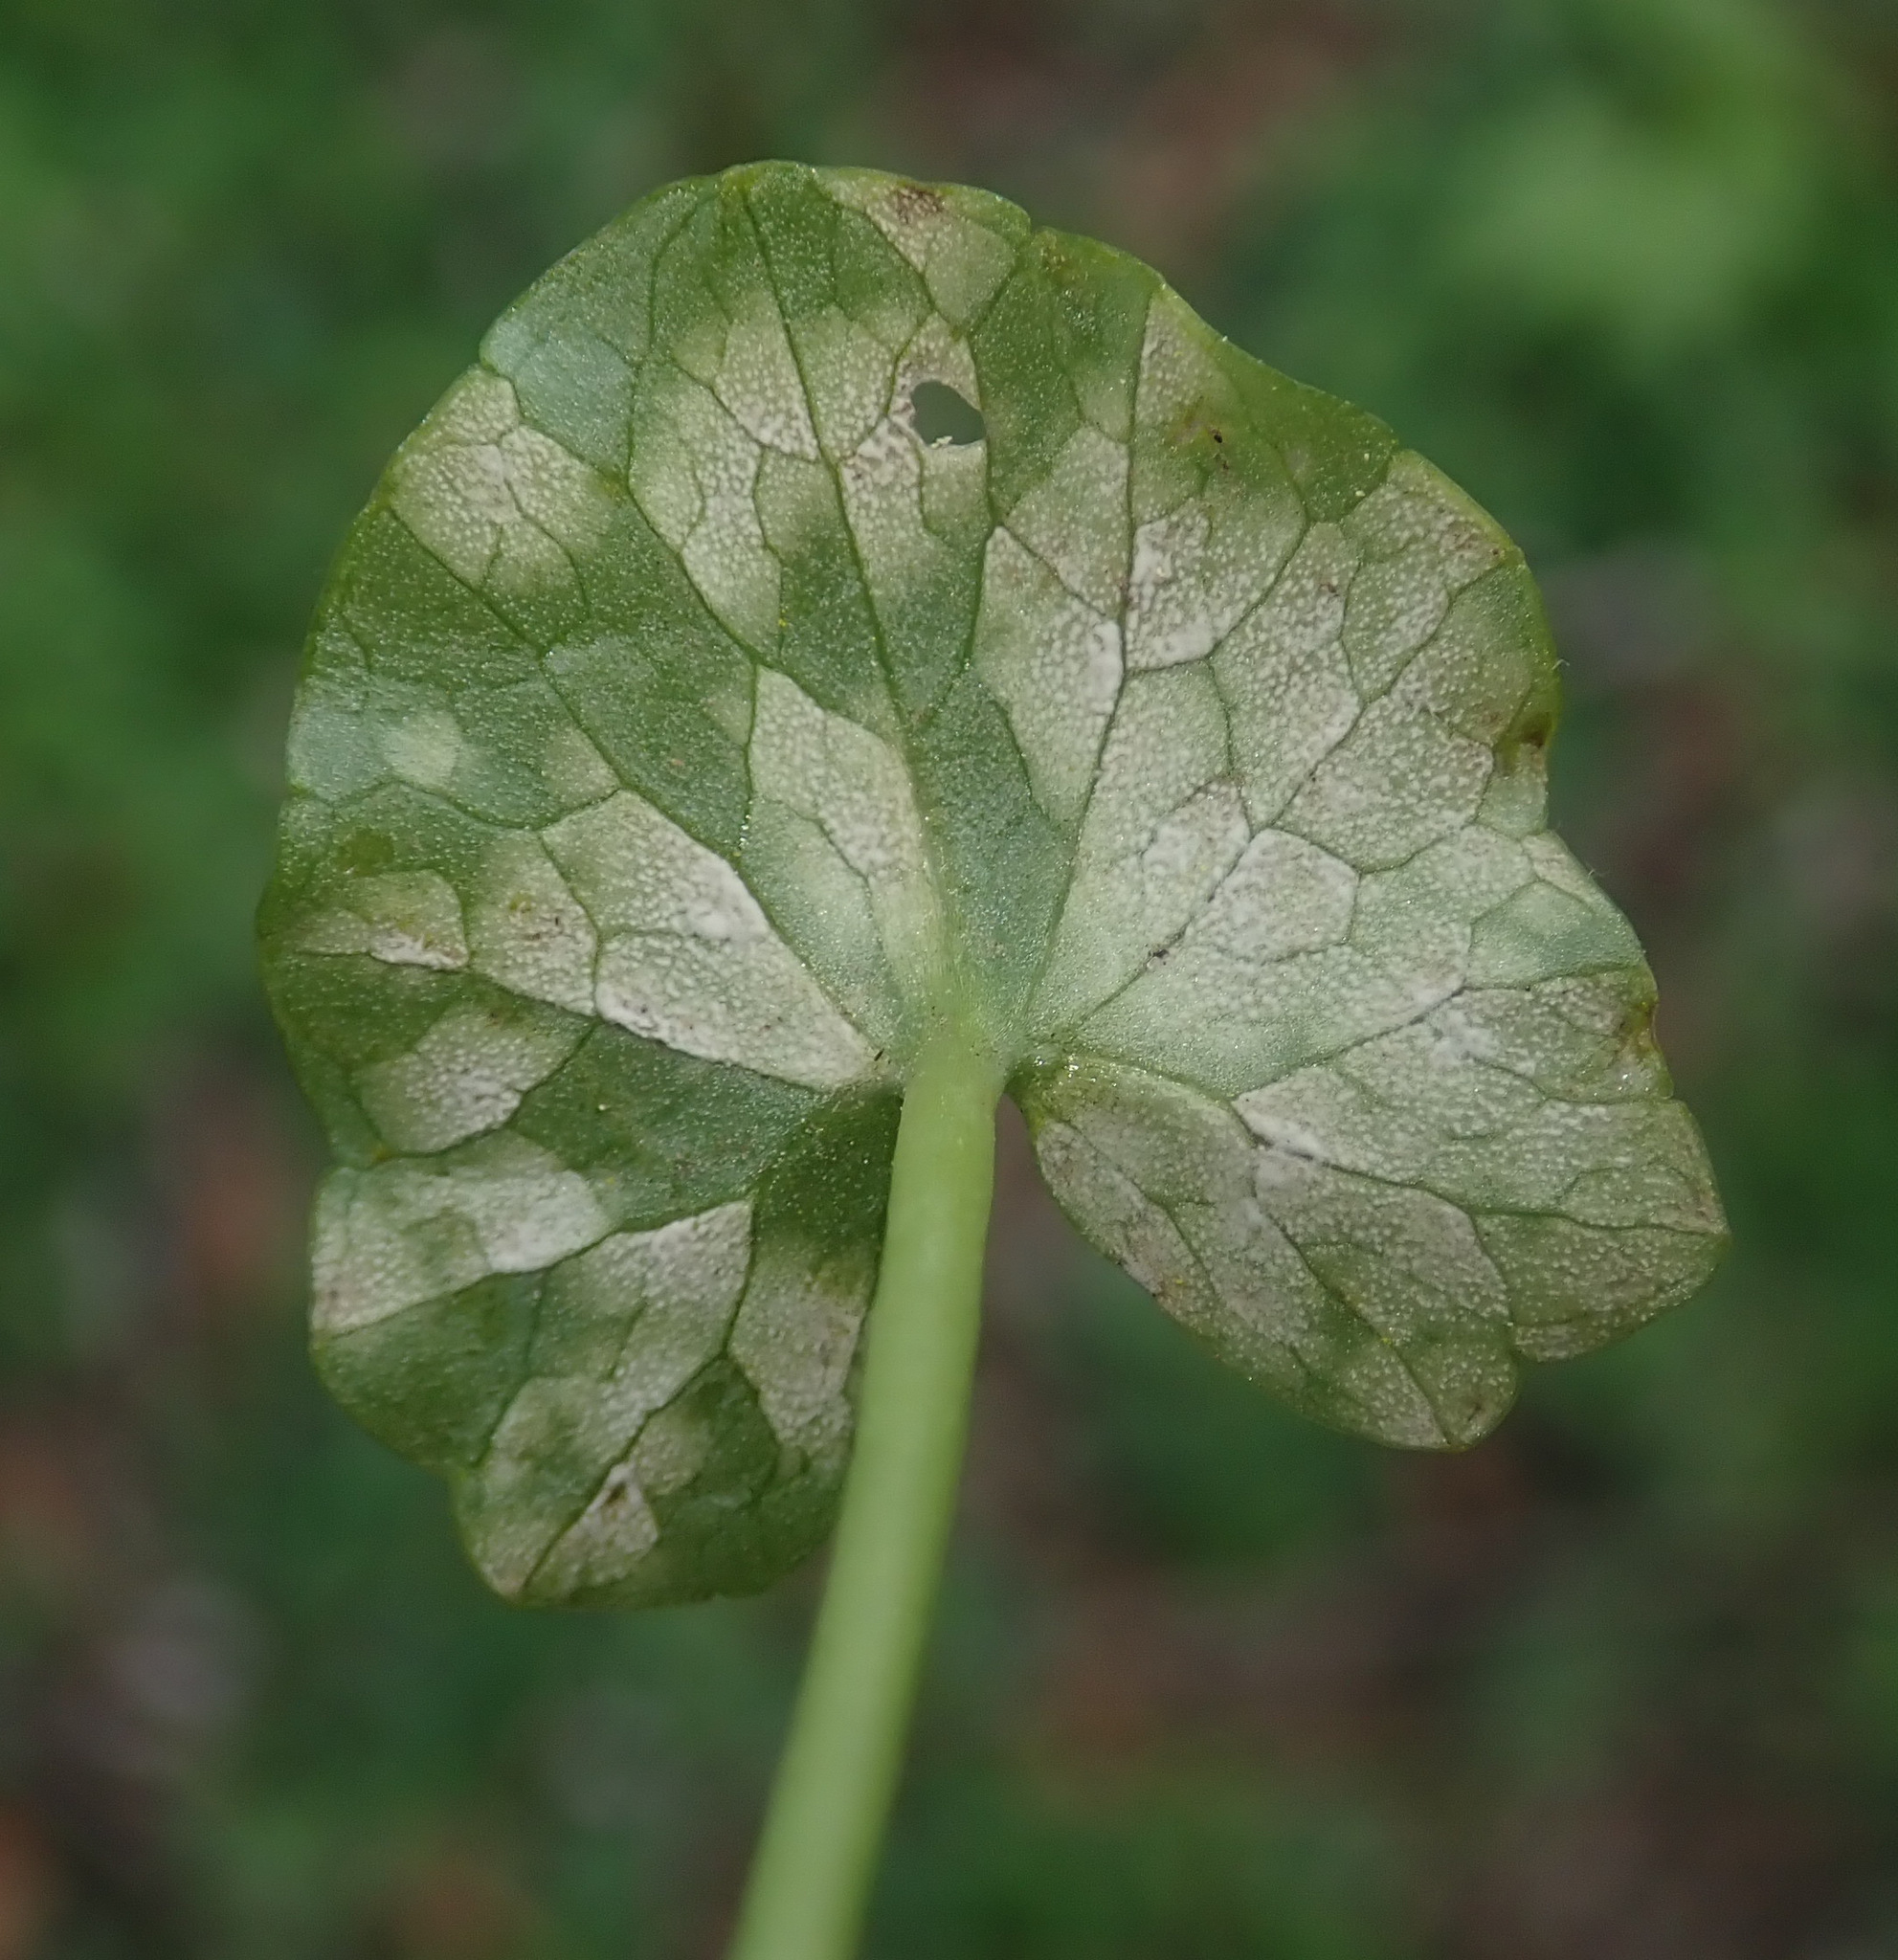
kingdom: Fungi
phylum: Basidiomycota
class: Exobasidiomycetes
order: Entylomatales
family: Entylomataceae
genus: Entyloma
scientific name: Entyloma ficariae
